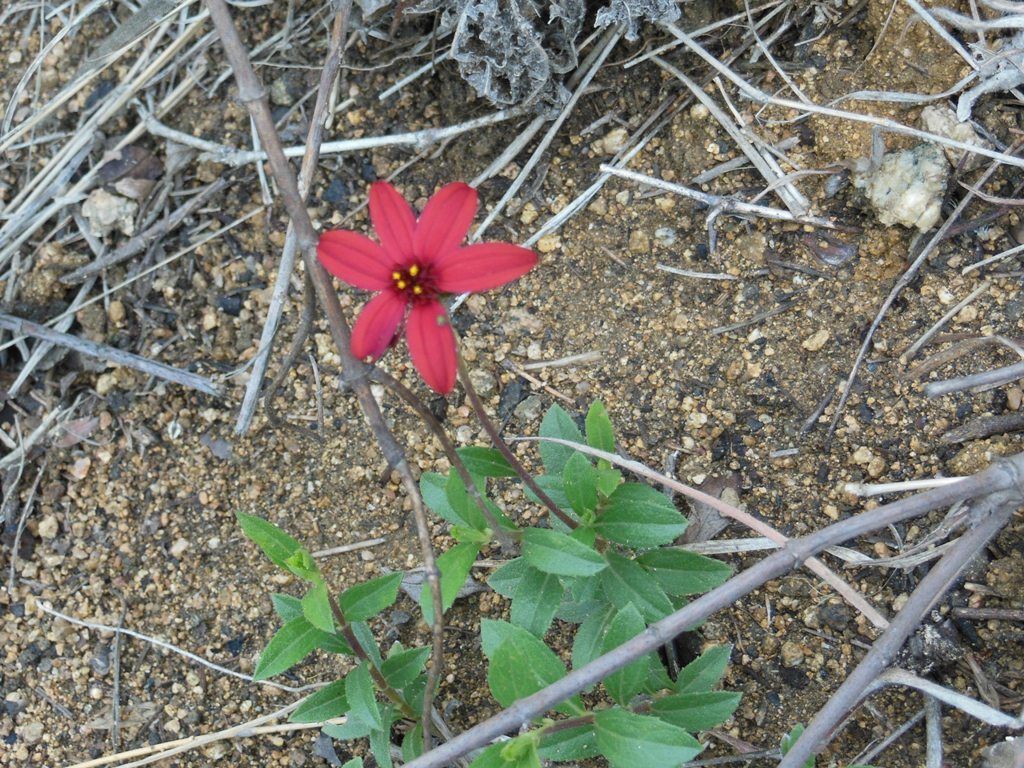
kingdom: Plantae
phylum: Tracheophyta
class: Magnoliopsida
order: Asterales
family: Asteraceae
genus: Wedelia
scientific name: Wedelia purpurea
